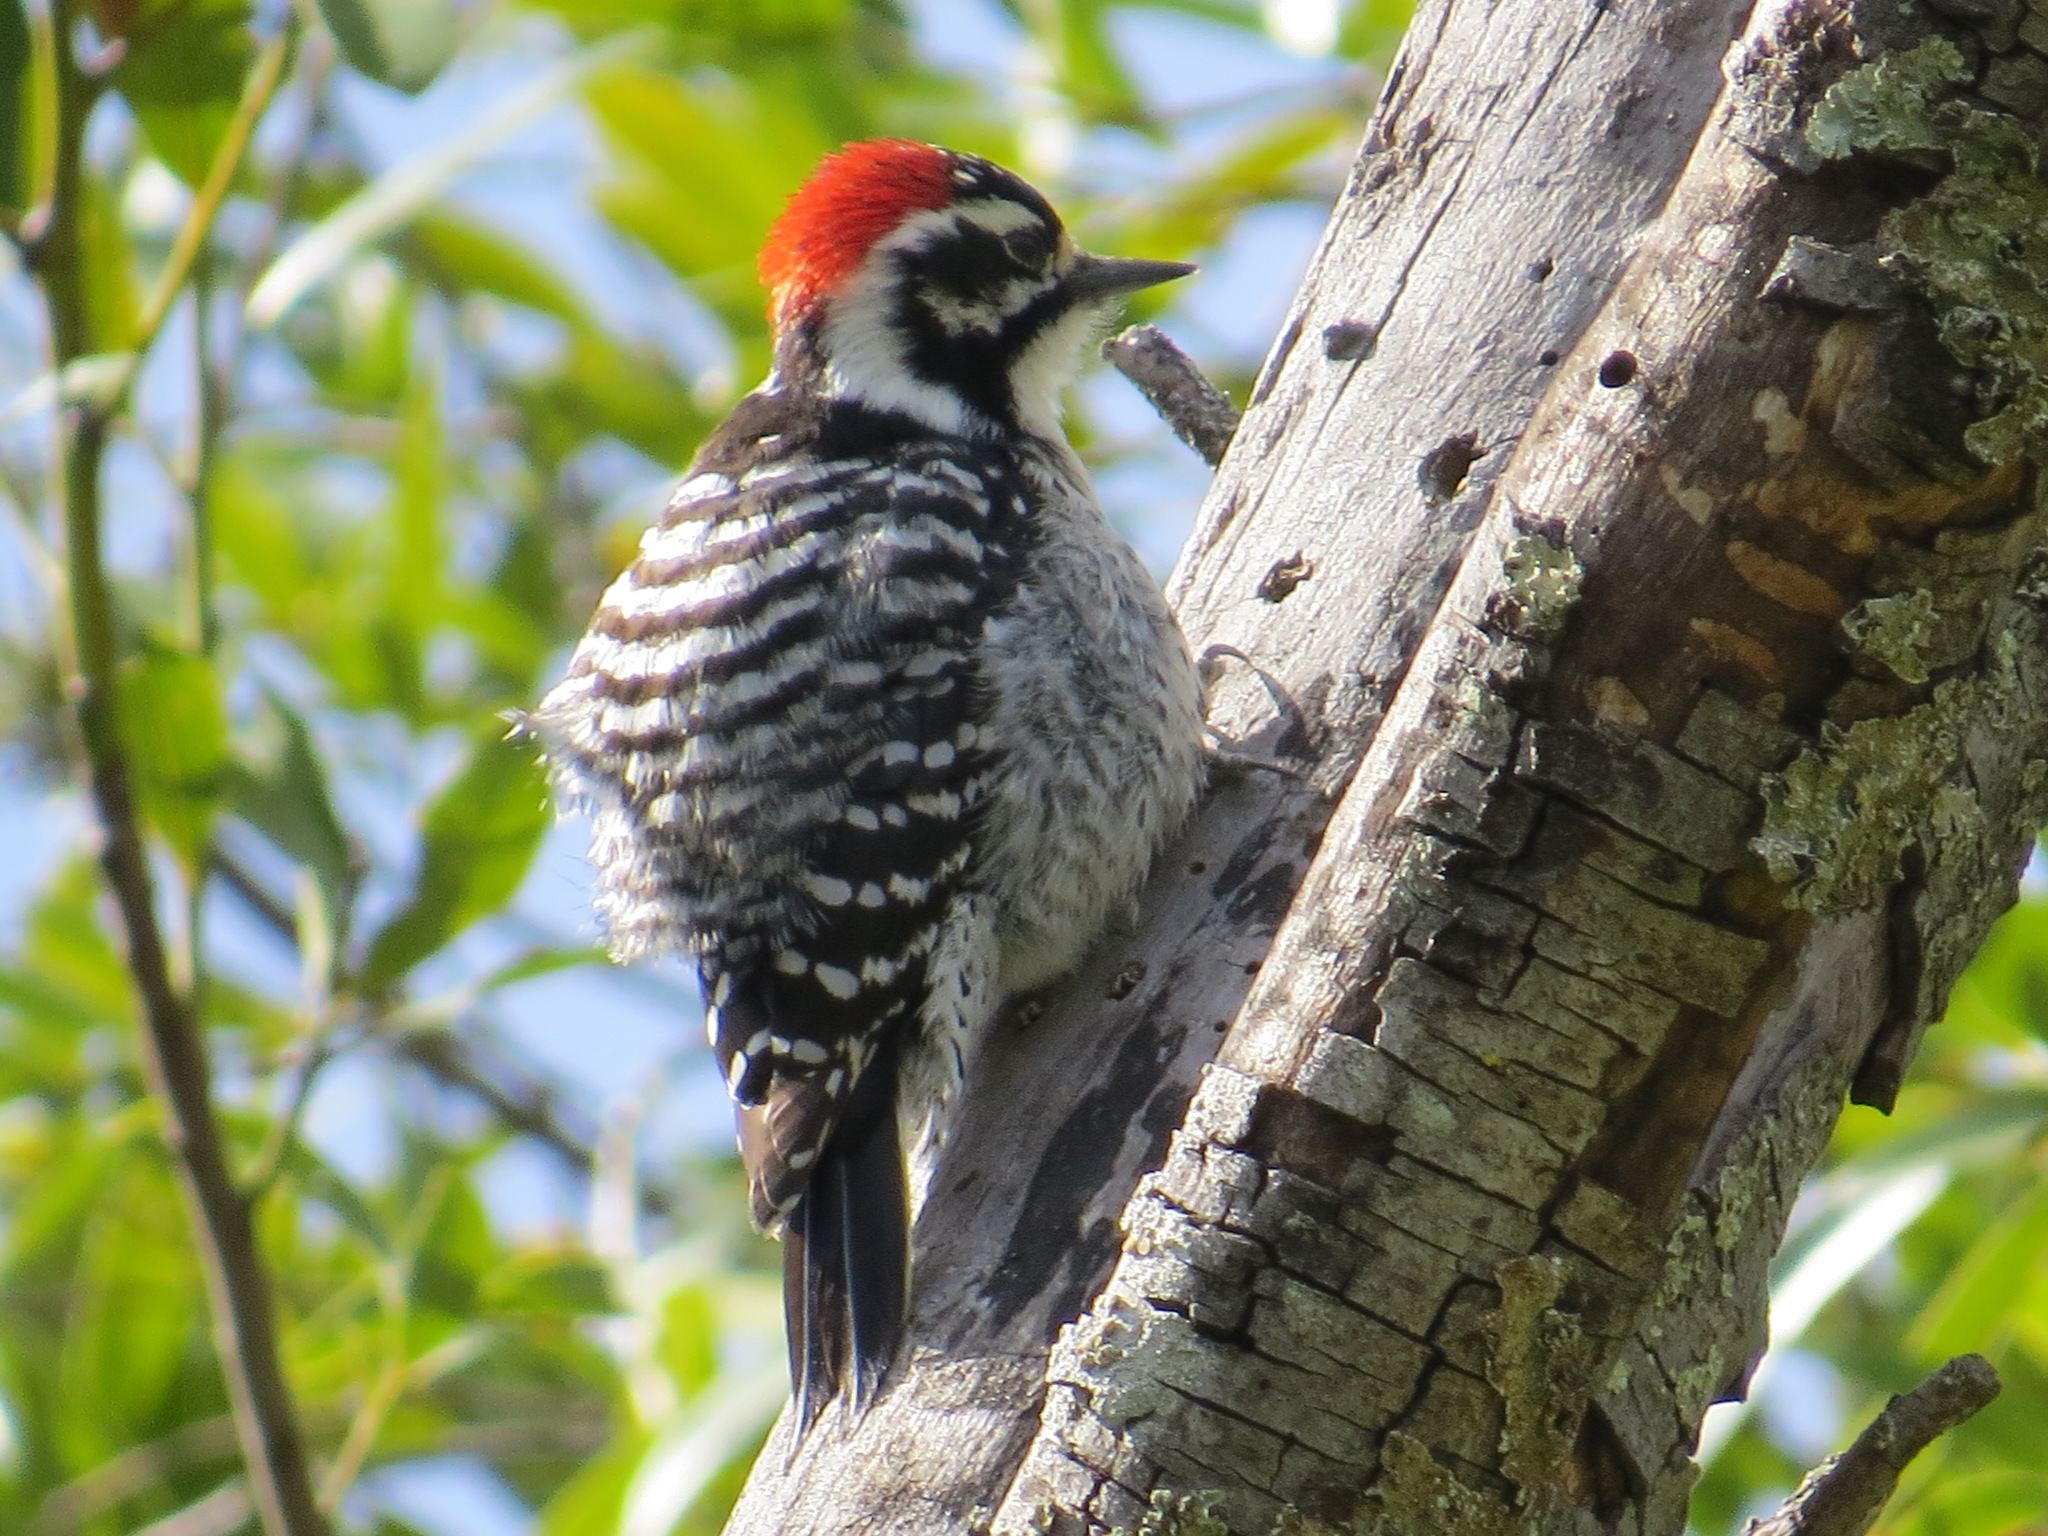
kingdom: Animalia
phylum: Chordata
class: Aves
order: Piciformes
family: Picidae
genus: Dryobates
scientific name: Dryobates nuttallii
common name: Nuttall's woodpecker
